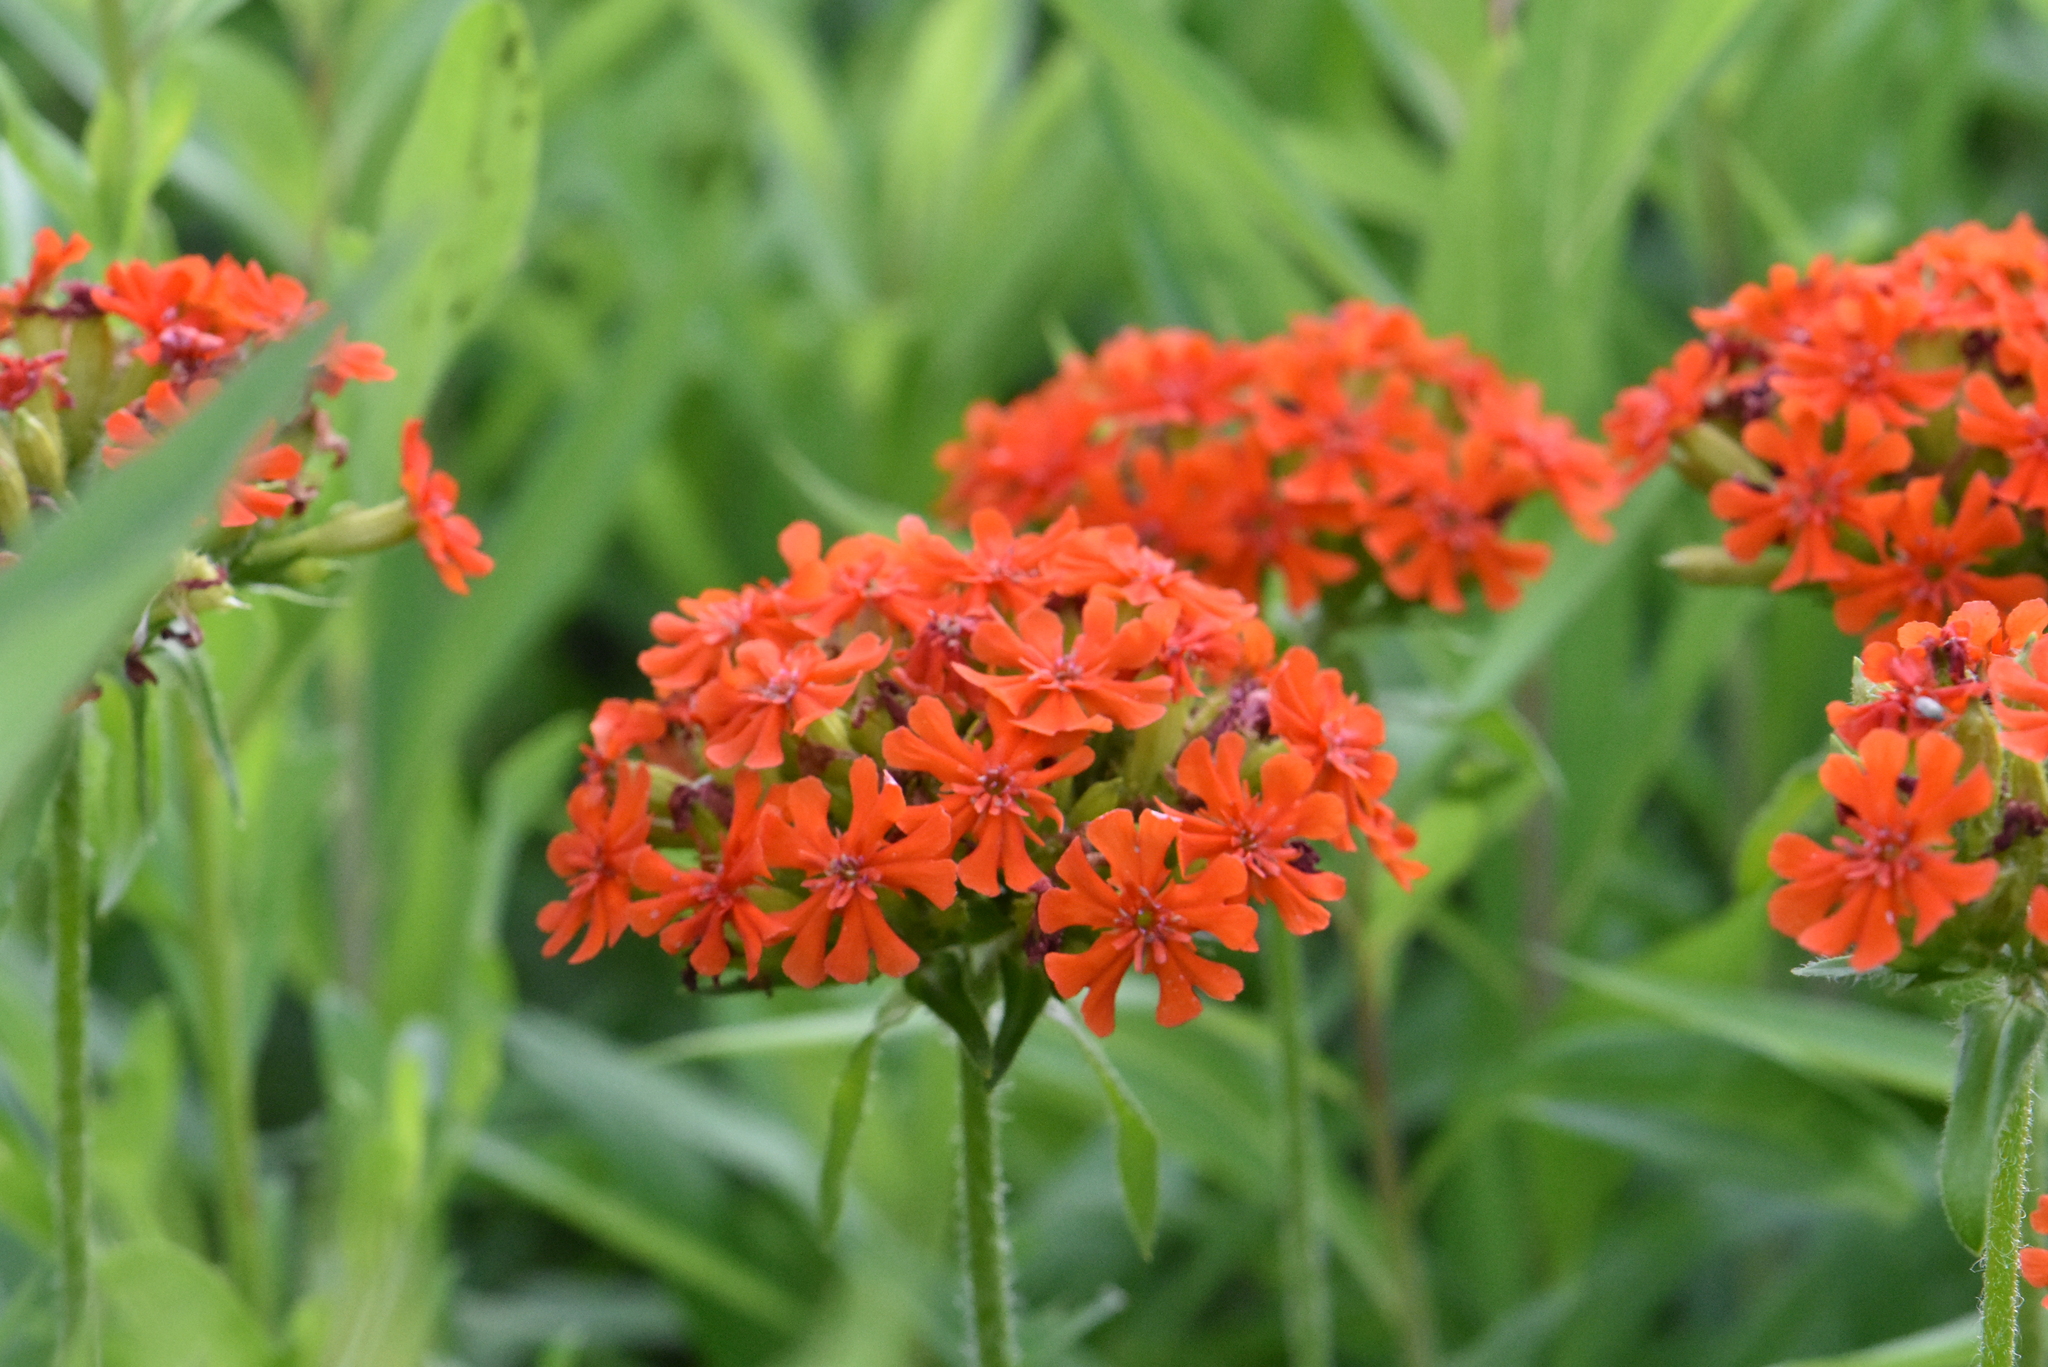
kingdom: Plantae
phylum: Tracheophyta
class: Magnoliopsida
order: Caryophyllales
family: Caryophyllaceae
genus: Silene
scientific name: Silene chalcedonica
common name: Maltese-cross
